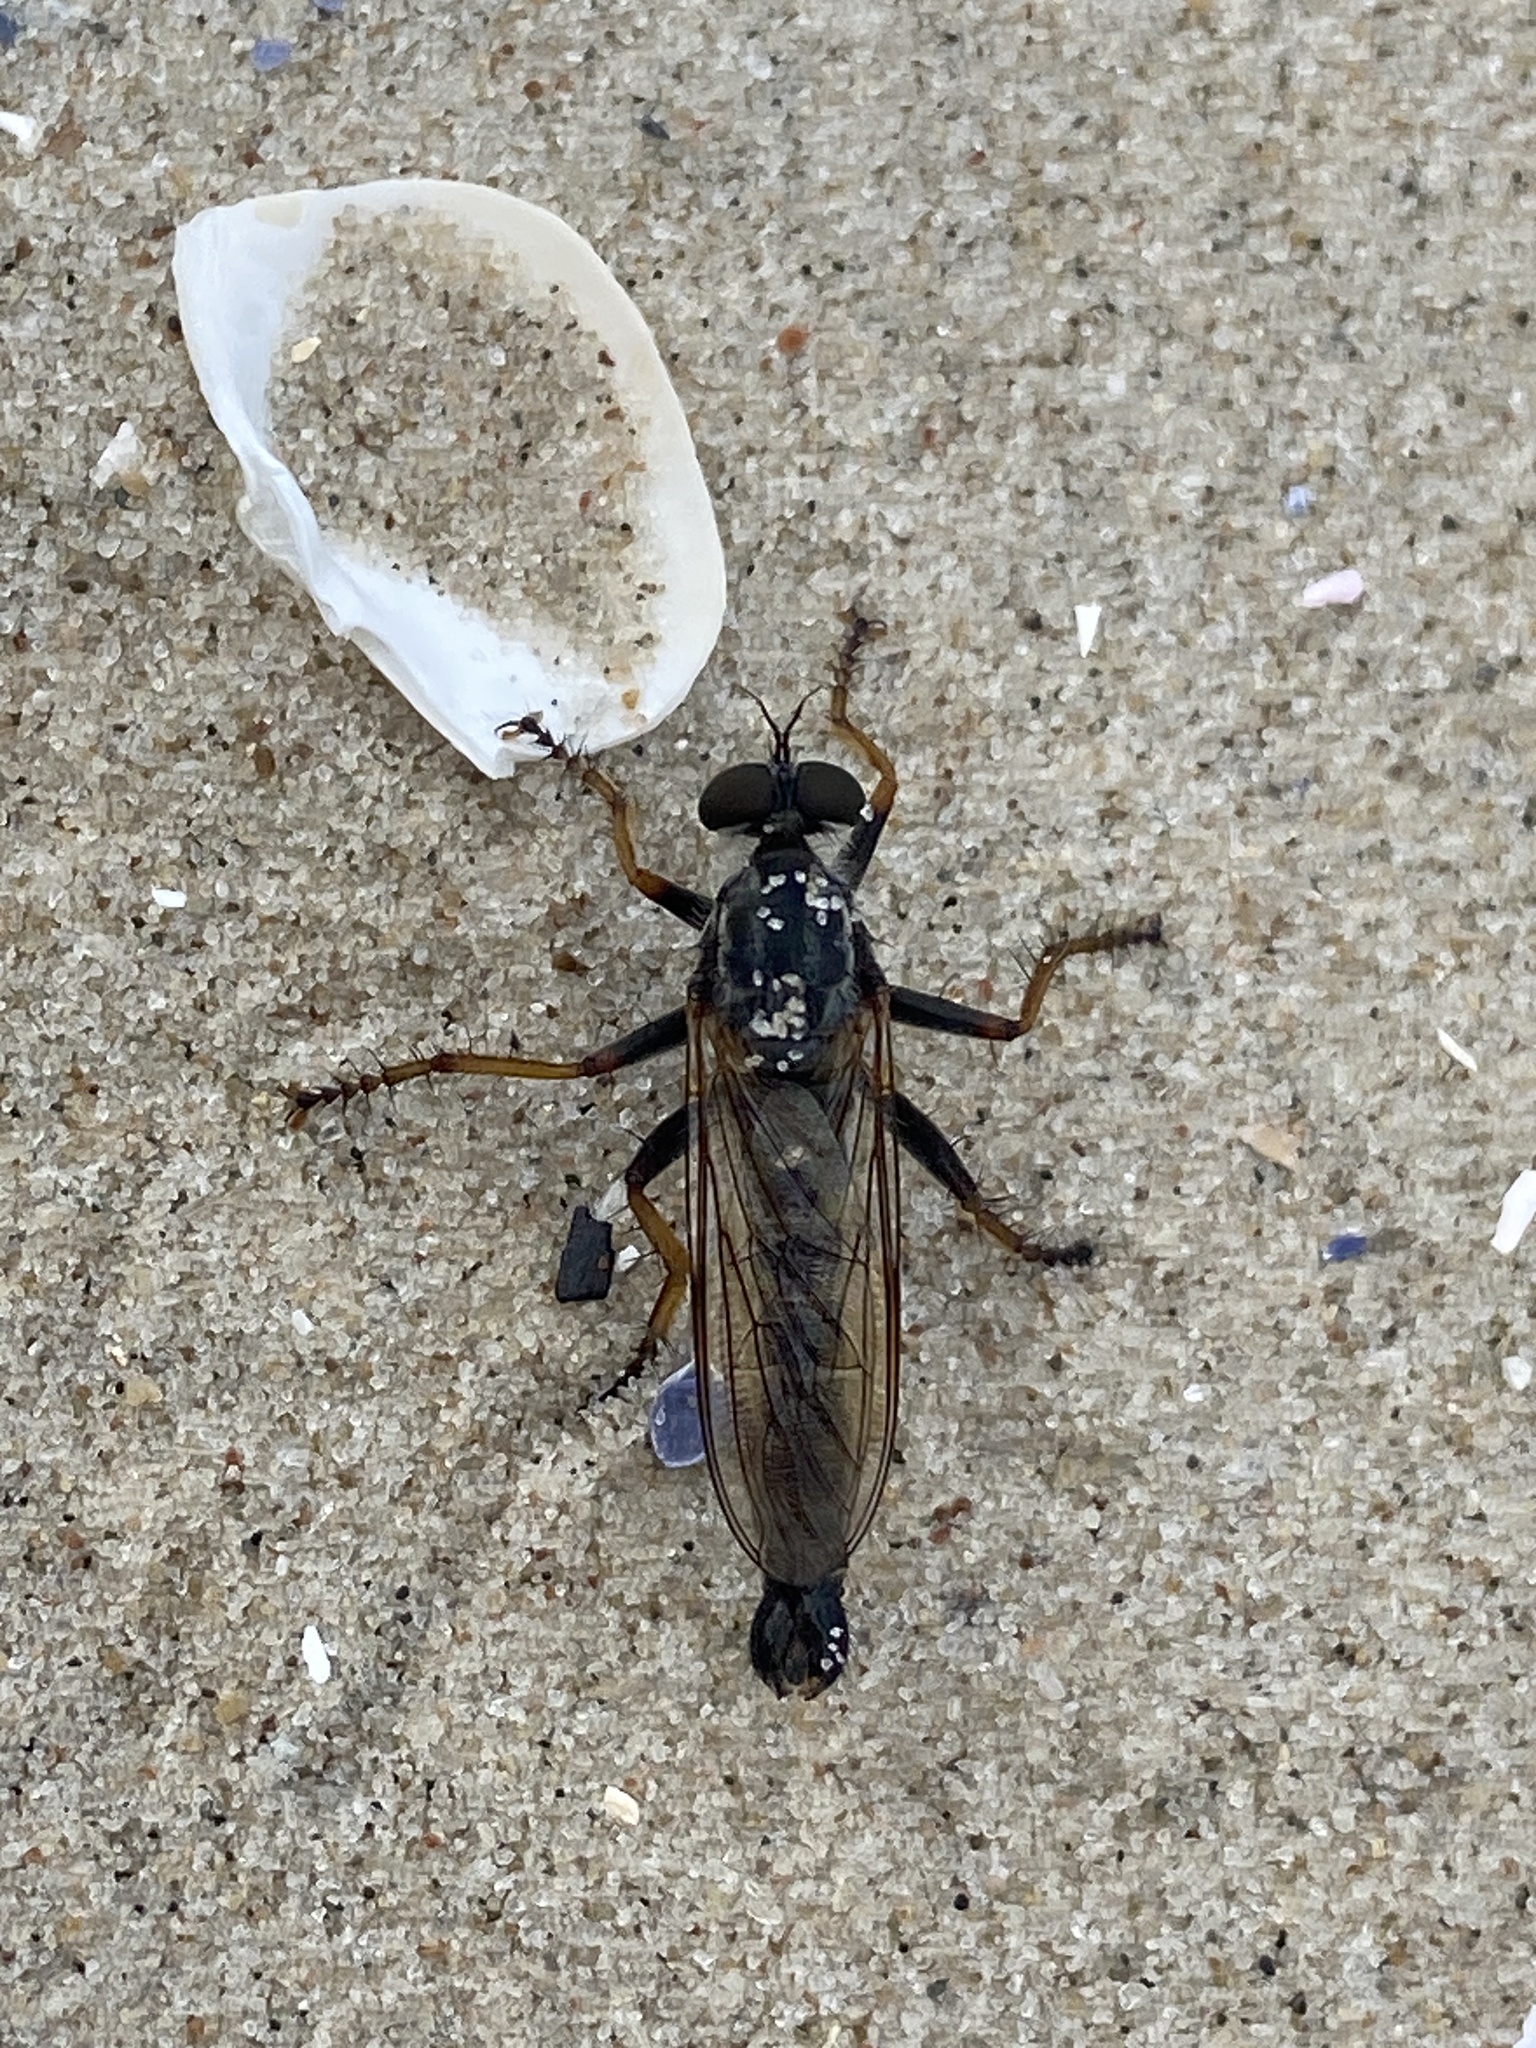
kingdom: Animalia
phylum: Arthropoda
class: Insecta
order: Diptera
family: Asilidae
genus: Paritamus
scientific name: Paritamus geniculatus
